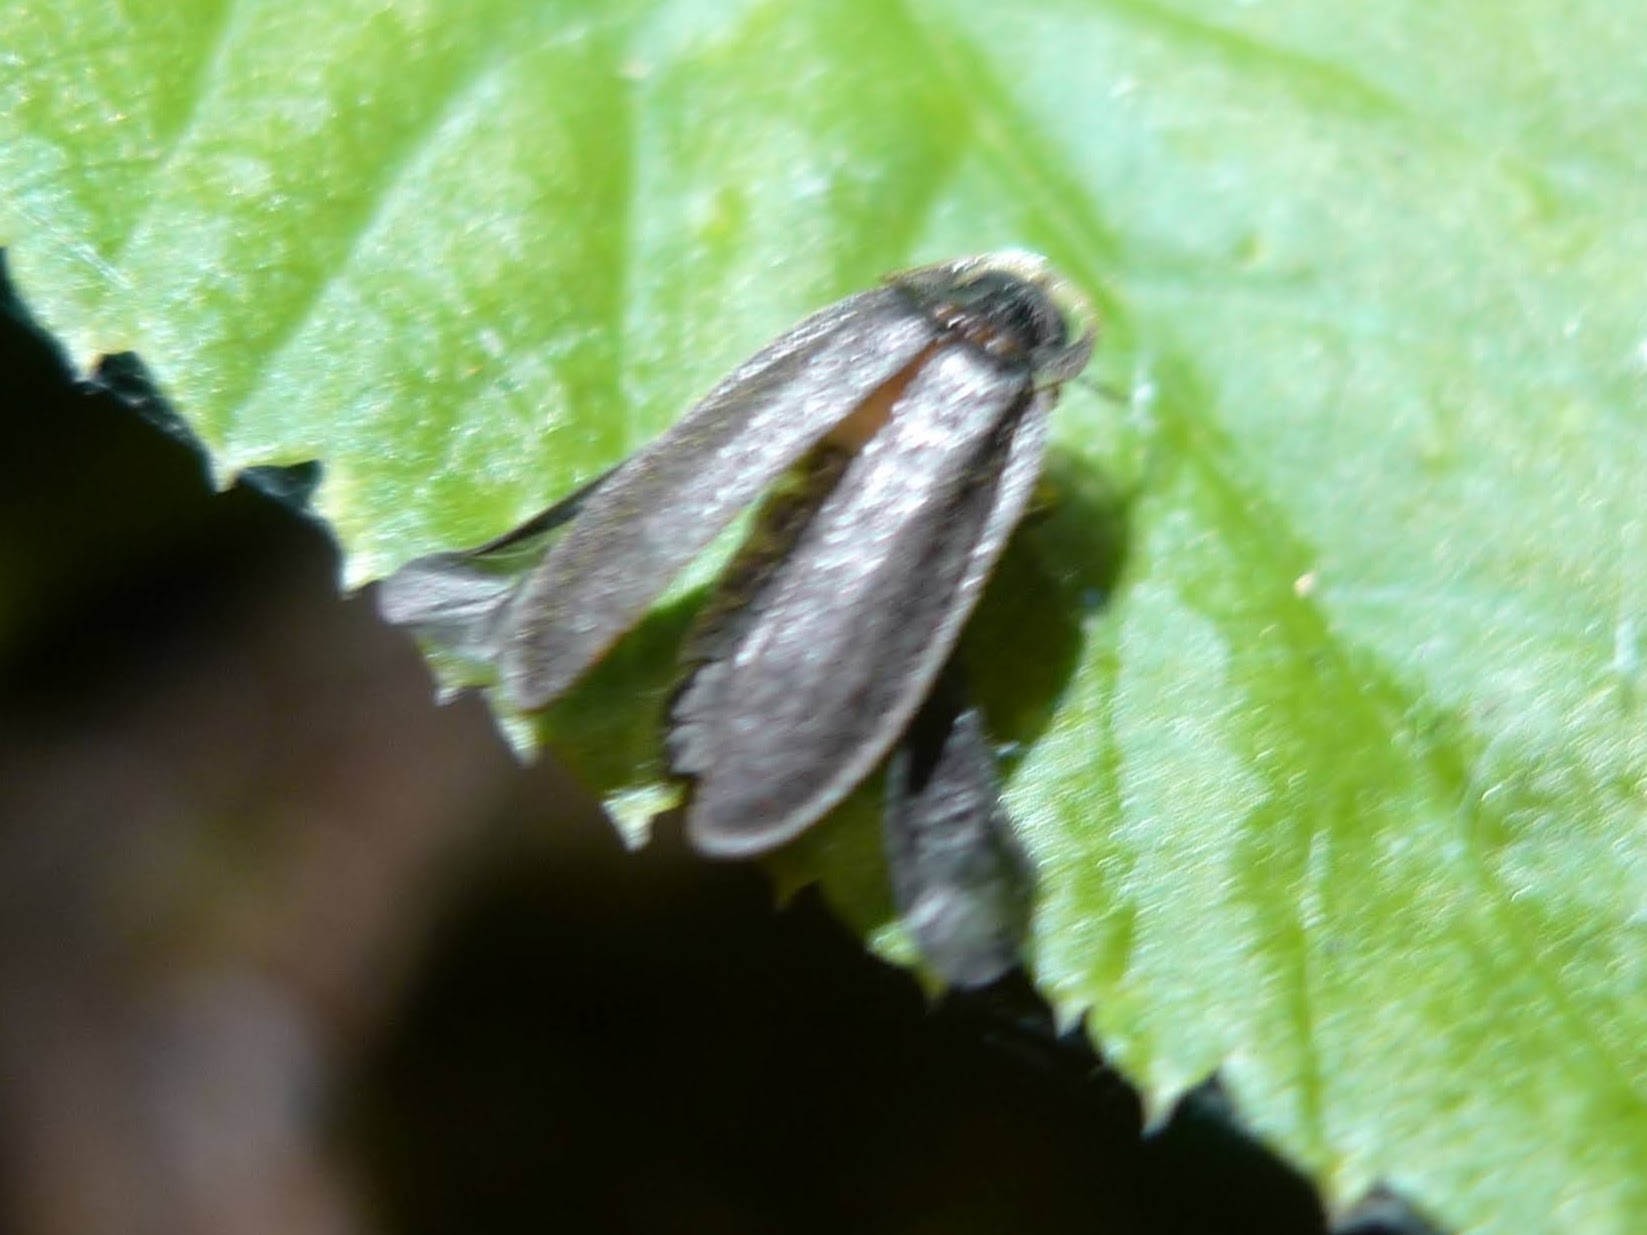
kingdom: Animalia
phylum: Arthropoda
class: Insecta
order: Coleoptera
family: Lampyridae
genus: Lamprohiza
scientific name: Lamprohiza splendidula
